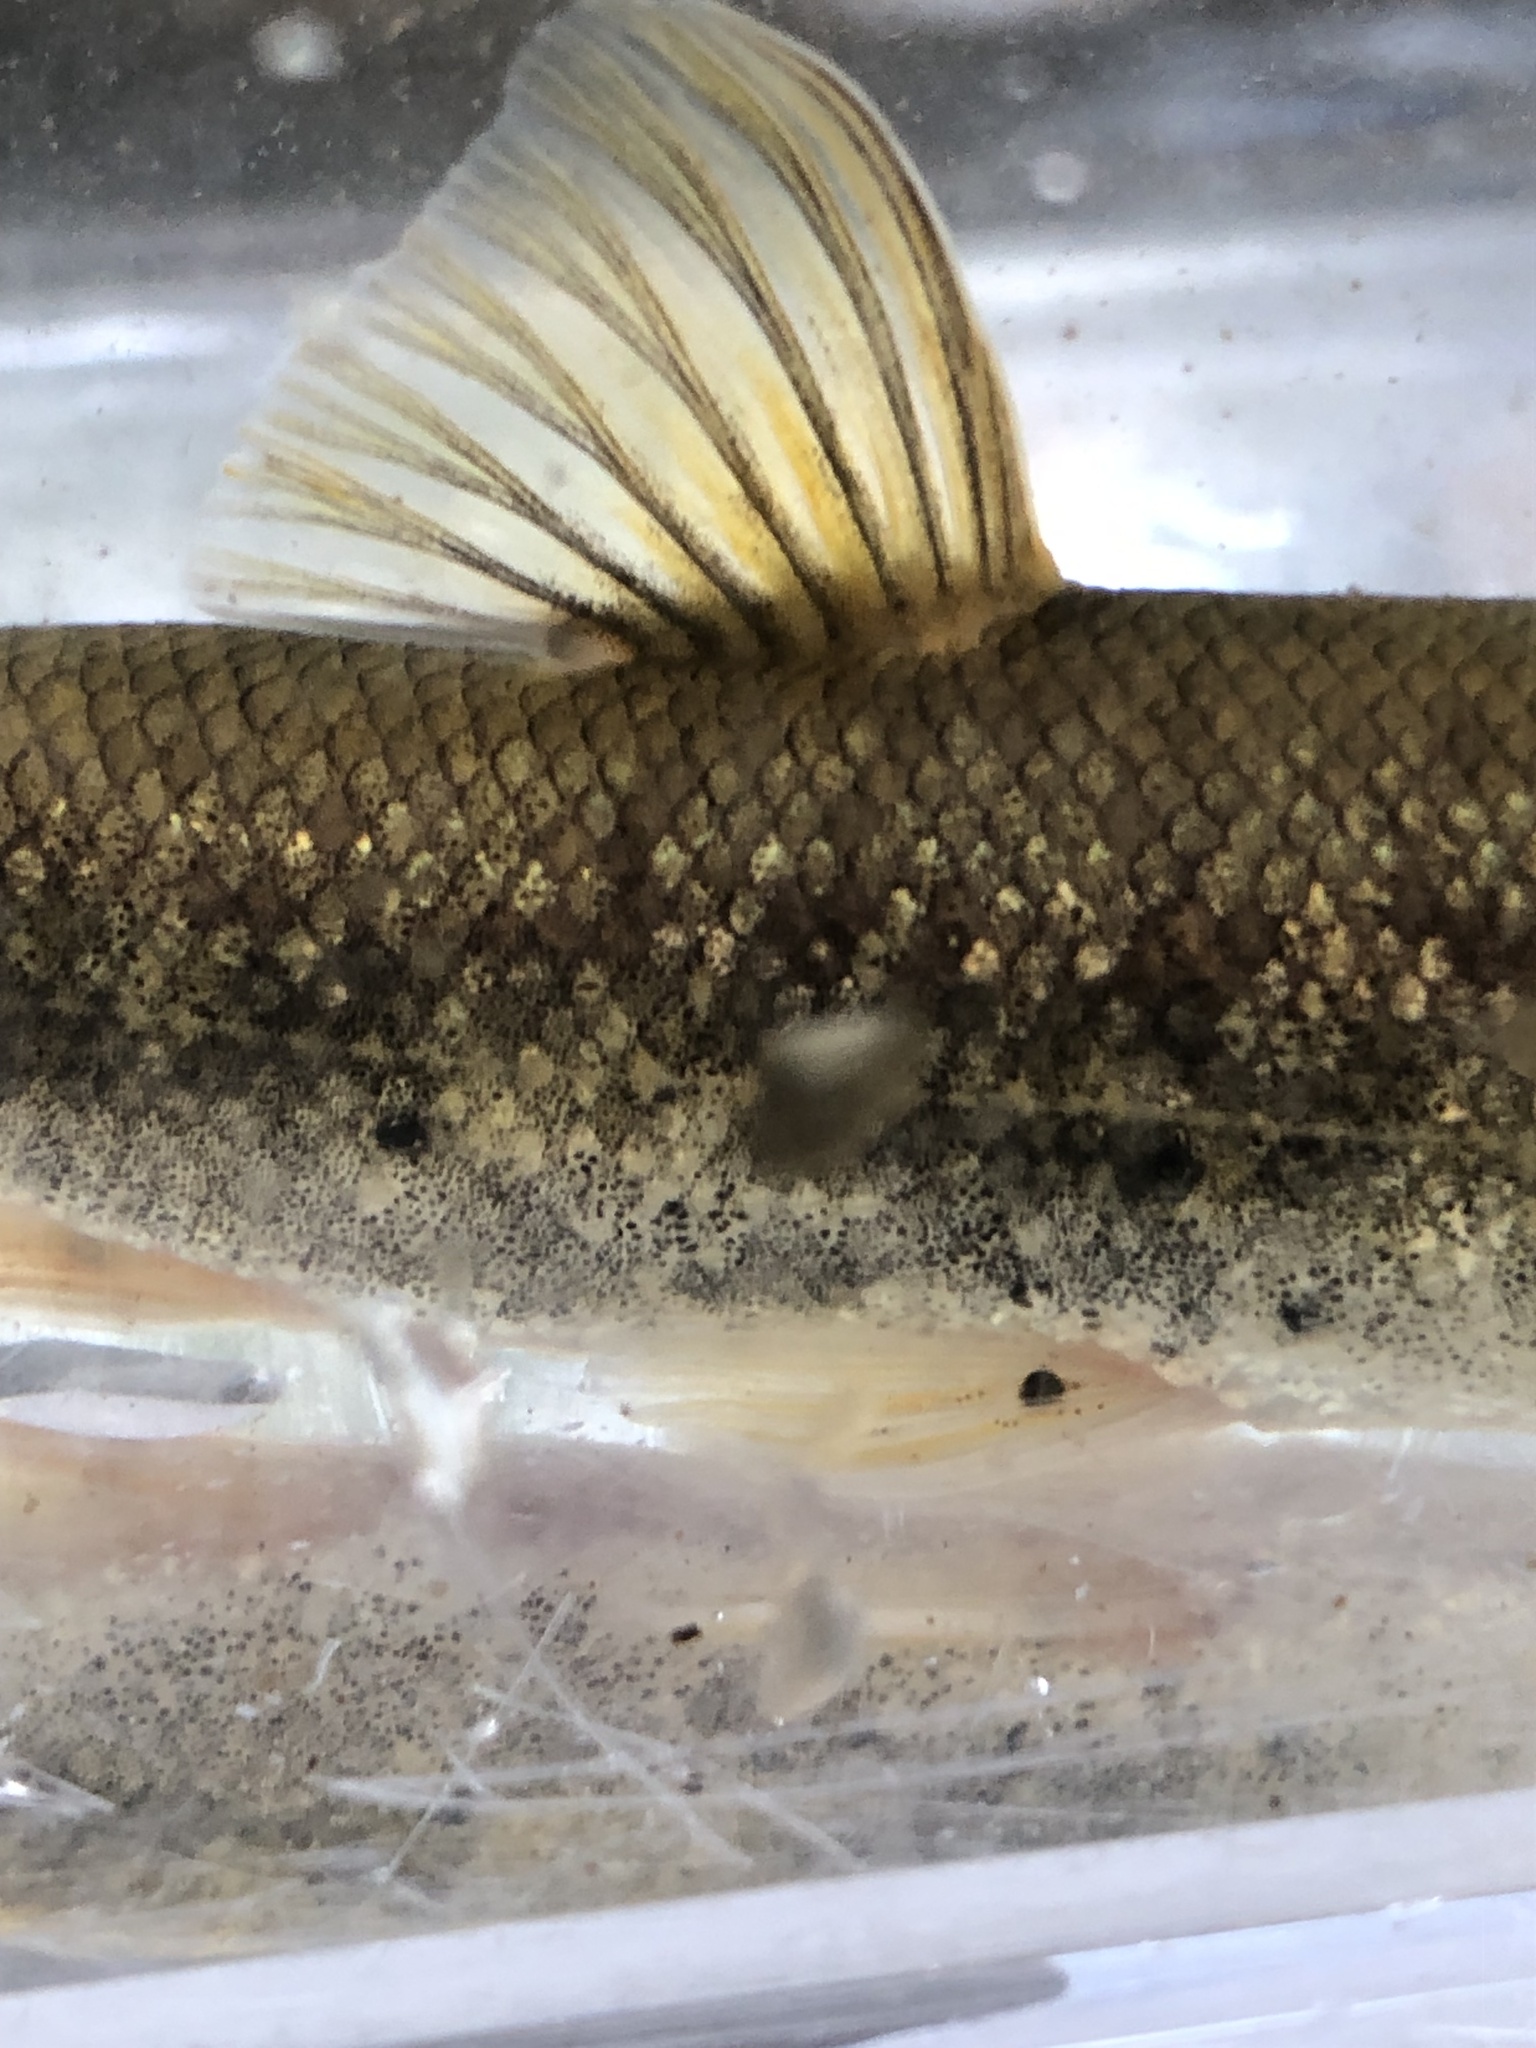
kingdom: Animalia
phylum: Platyhelminthes
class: Trematoda
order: Diplostomida
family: Diplostomidae
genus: Neascus
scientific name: Neascus
